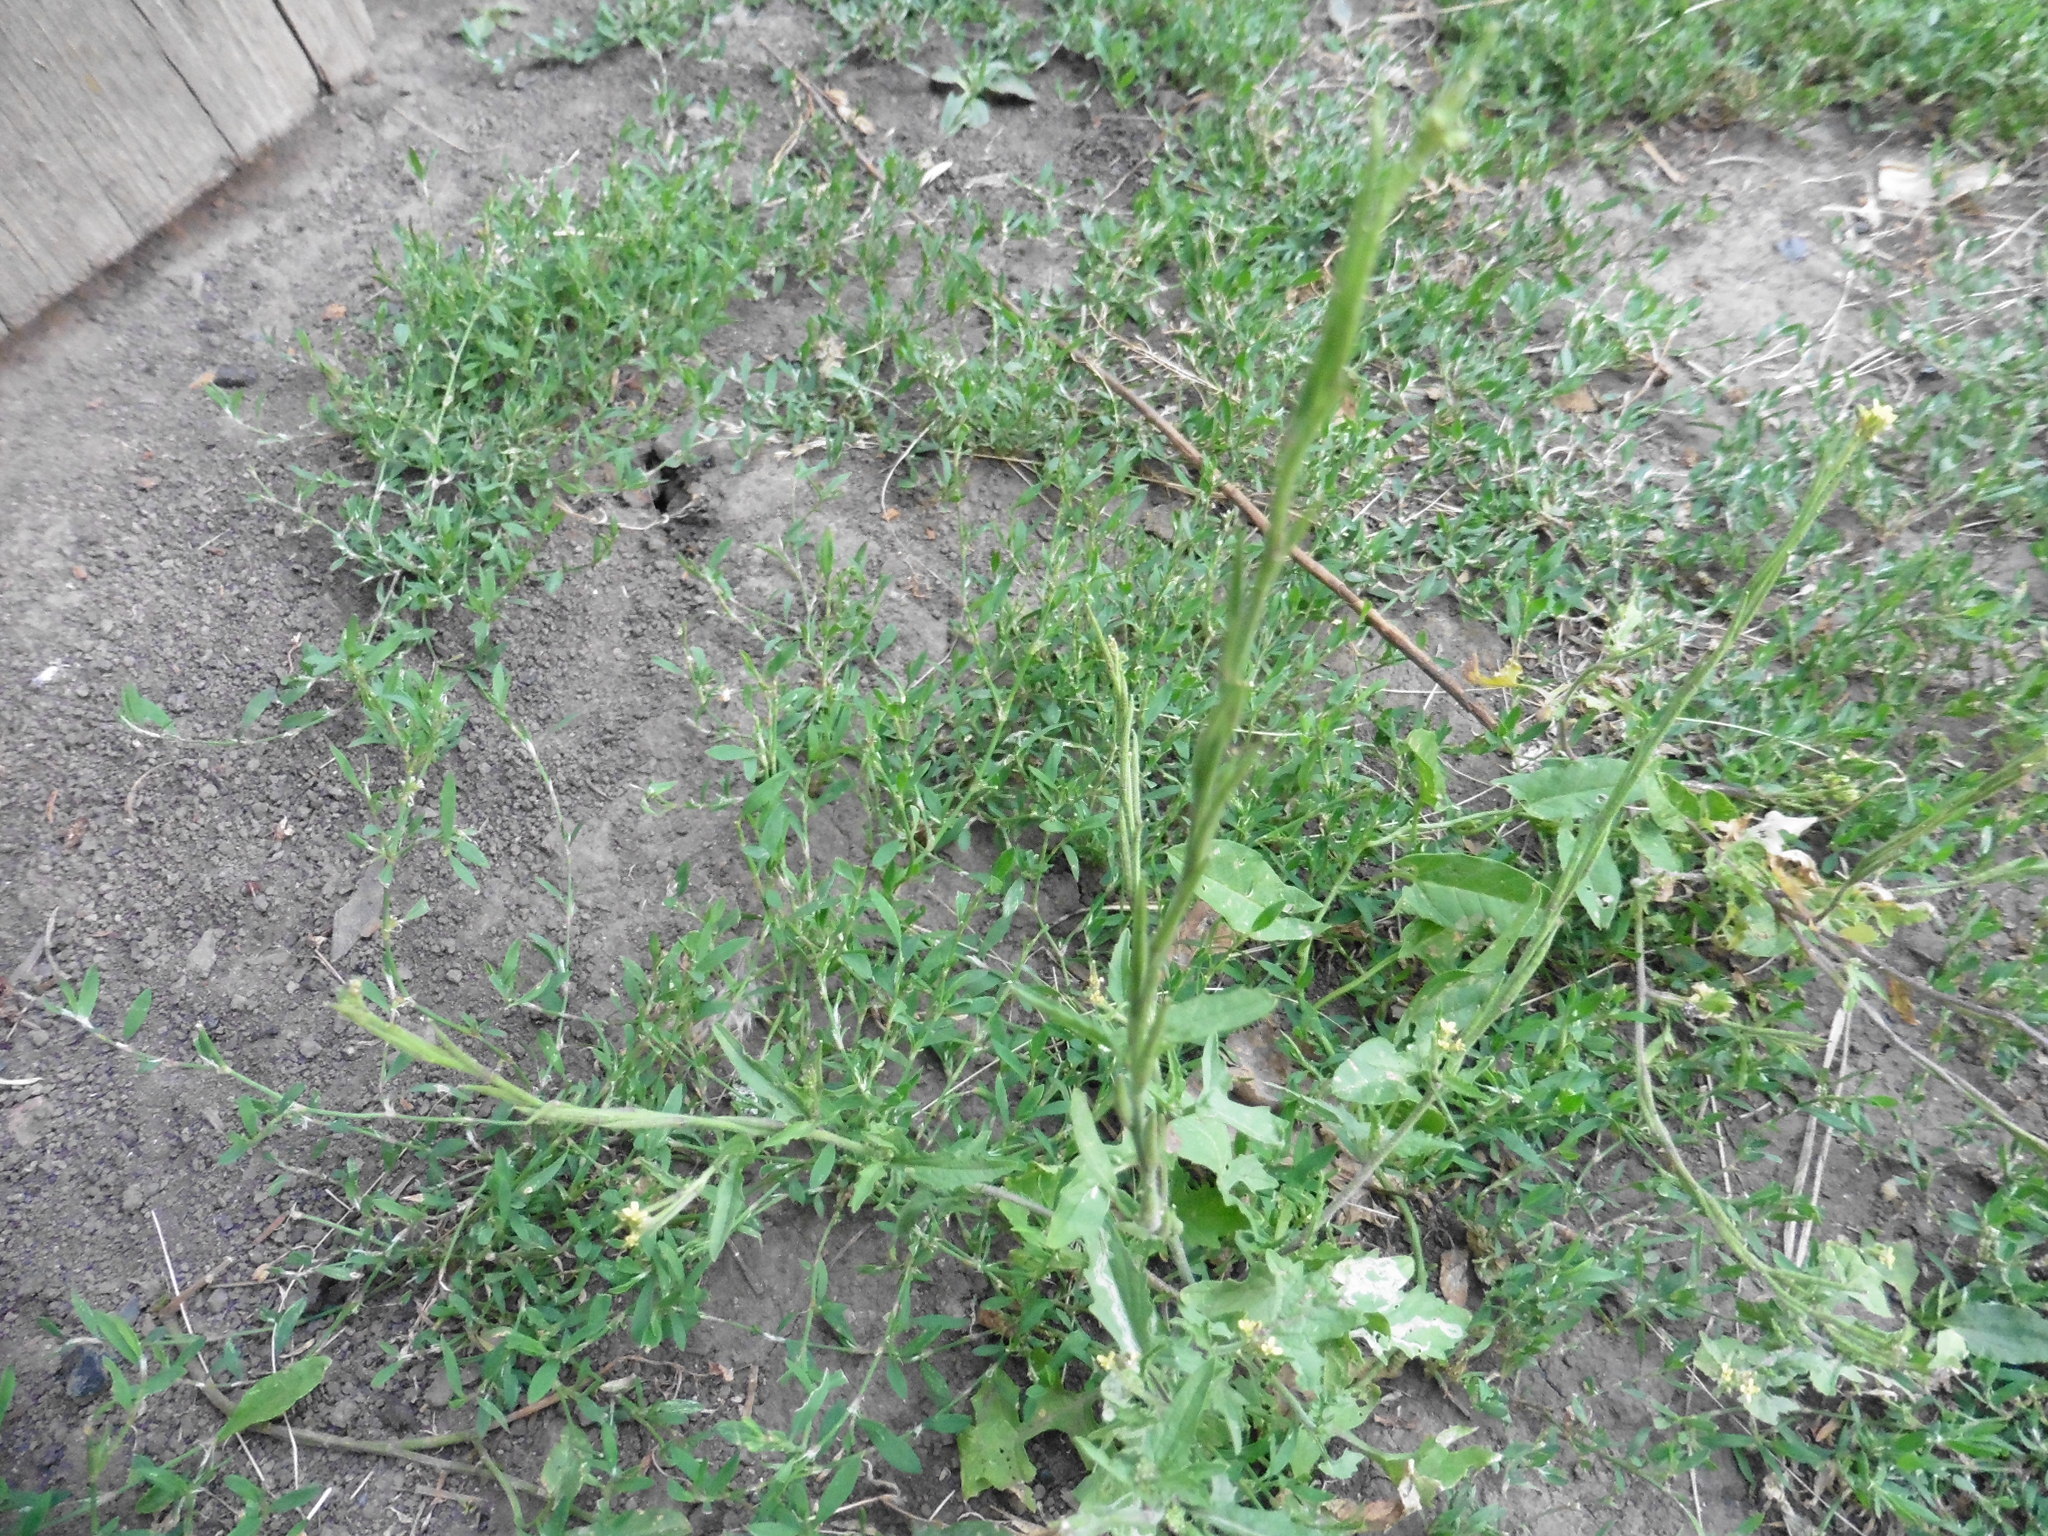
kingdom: Plantae
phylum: Tracheophyta
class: Magnoliopsida
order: Brassicales
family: Brassicaceae
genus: Sisymbrium
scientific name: Sisymbrium officinale
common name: Hedge mustard
